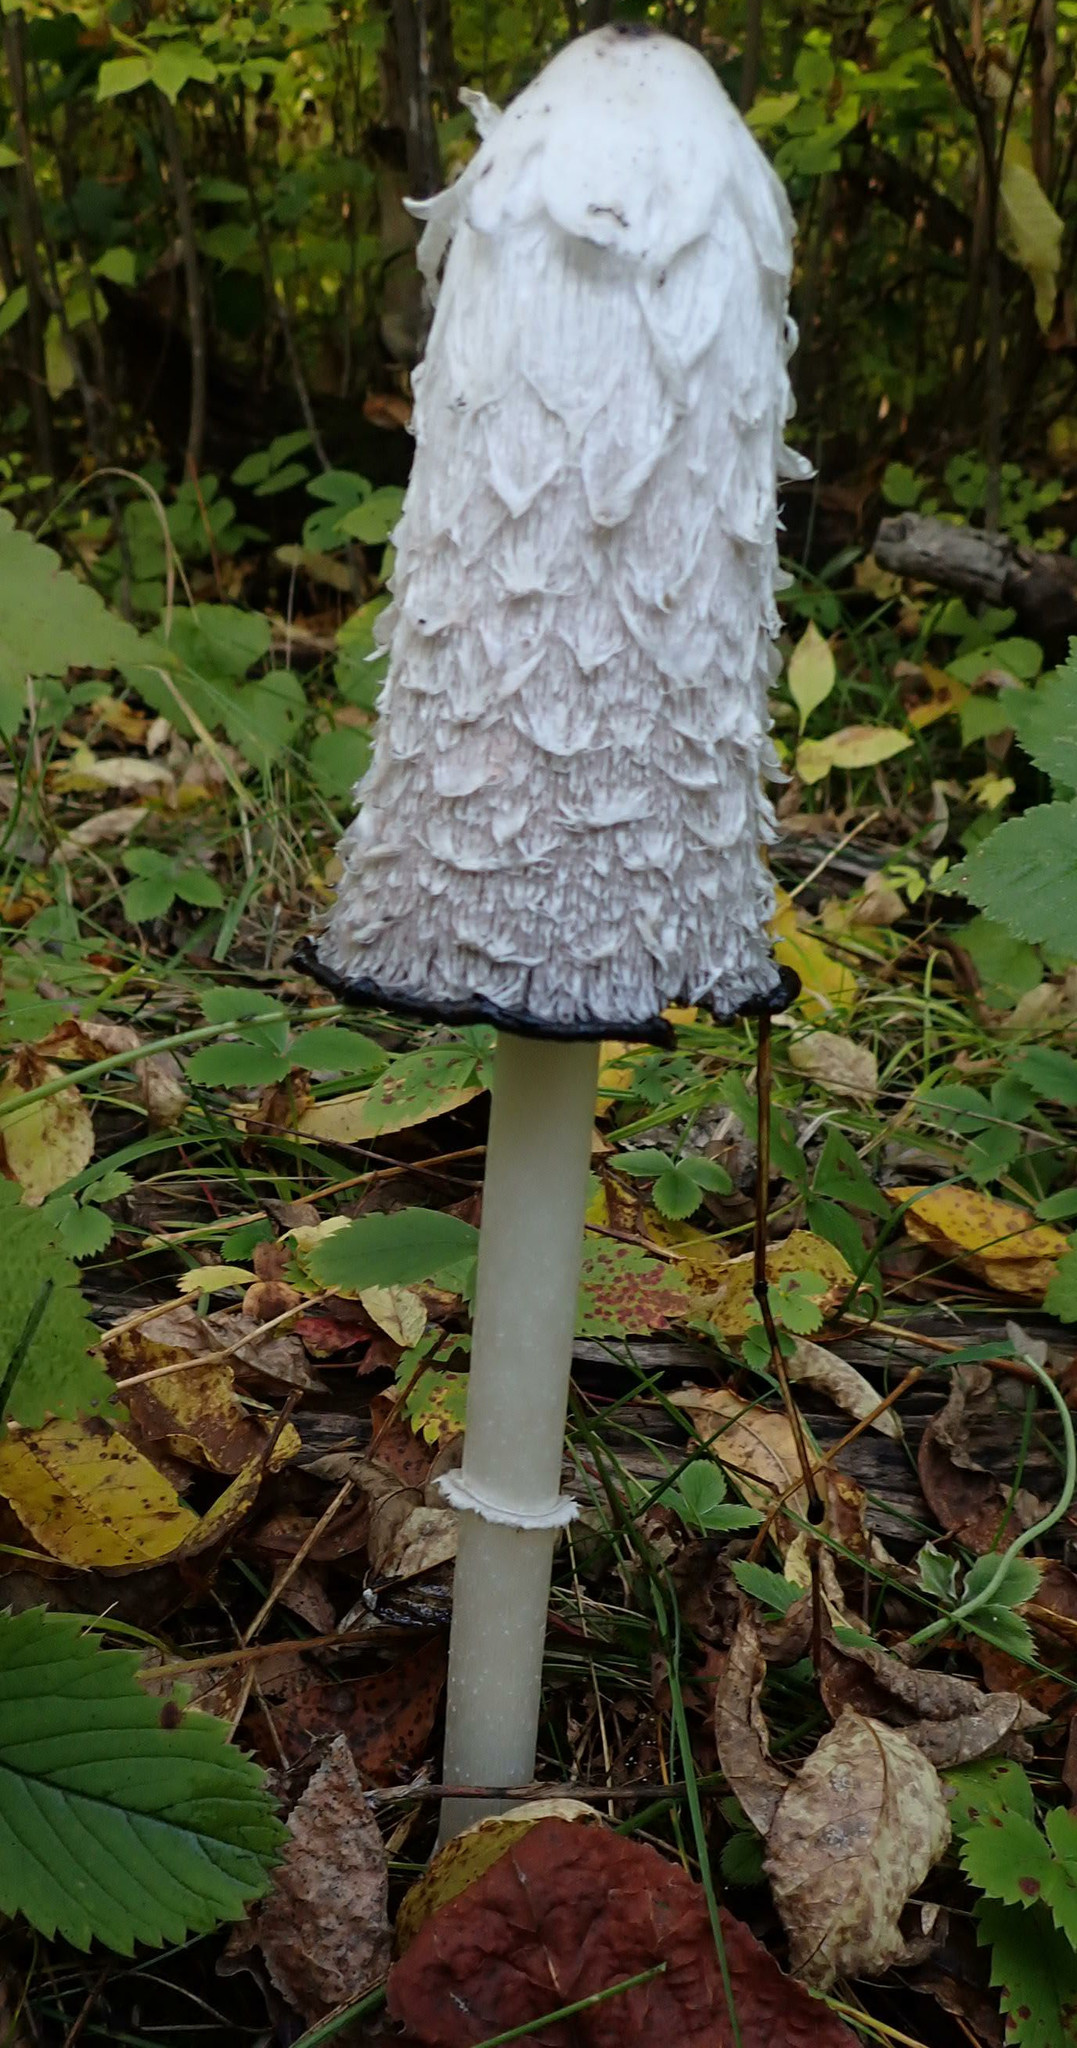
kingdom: Fungi
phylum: Basidiomycota
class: Agaricomycetes
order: Agaricales
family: Agaricaceae
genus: Coprinus
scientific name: Coprinus comatus
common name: Lawyer's wig
